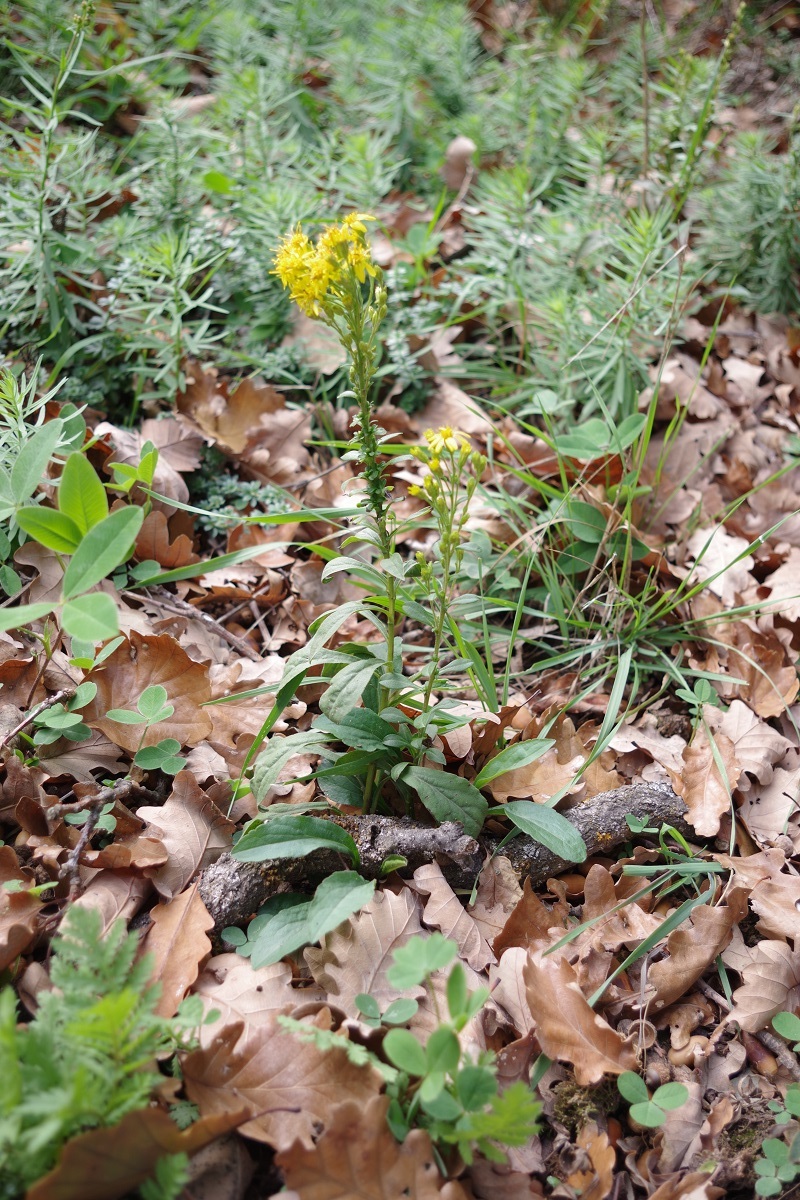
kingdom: Plantae
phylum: Tracheophyta
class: Magnoliopsida
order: Asterales
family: Asteraceae
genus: Solidago
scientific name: Solidago virgaurea
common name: Goldenrod
